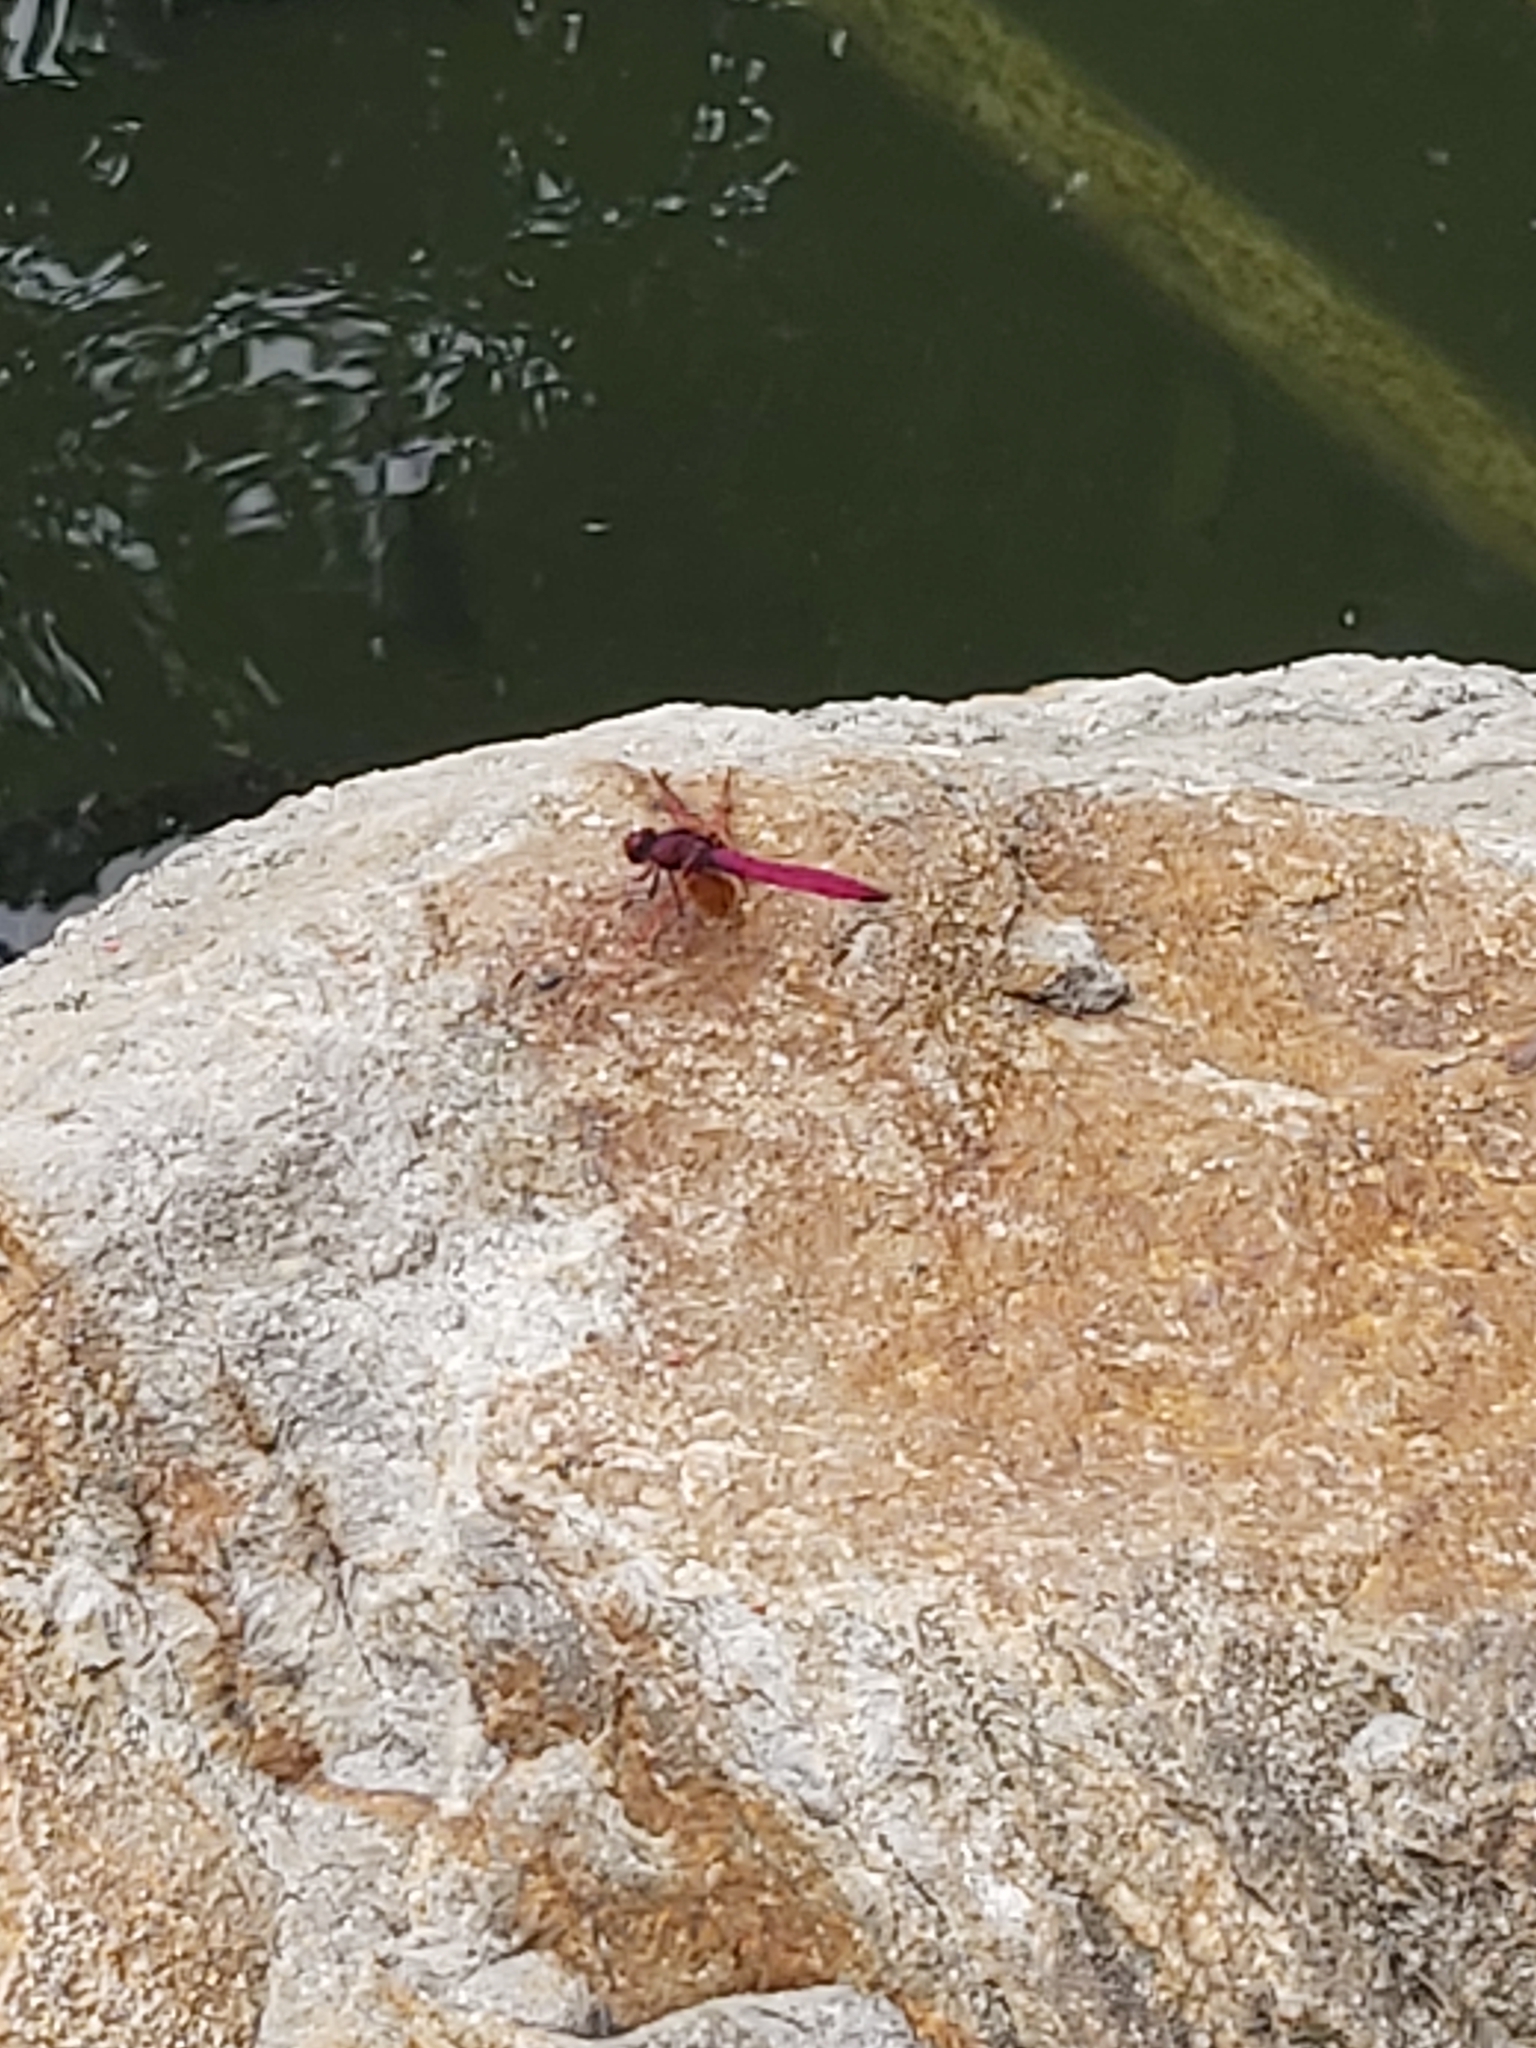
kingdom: Animalia
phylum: Arthropoda
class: Insecta
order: Odonata
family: Libellulidae
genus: Trithemis
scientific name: Trithemis aurora
